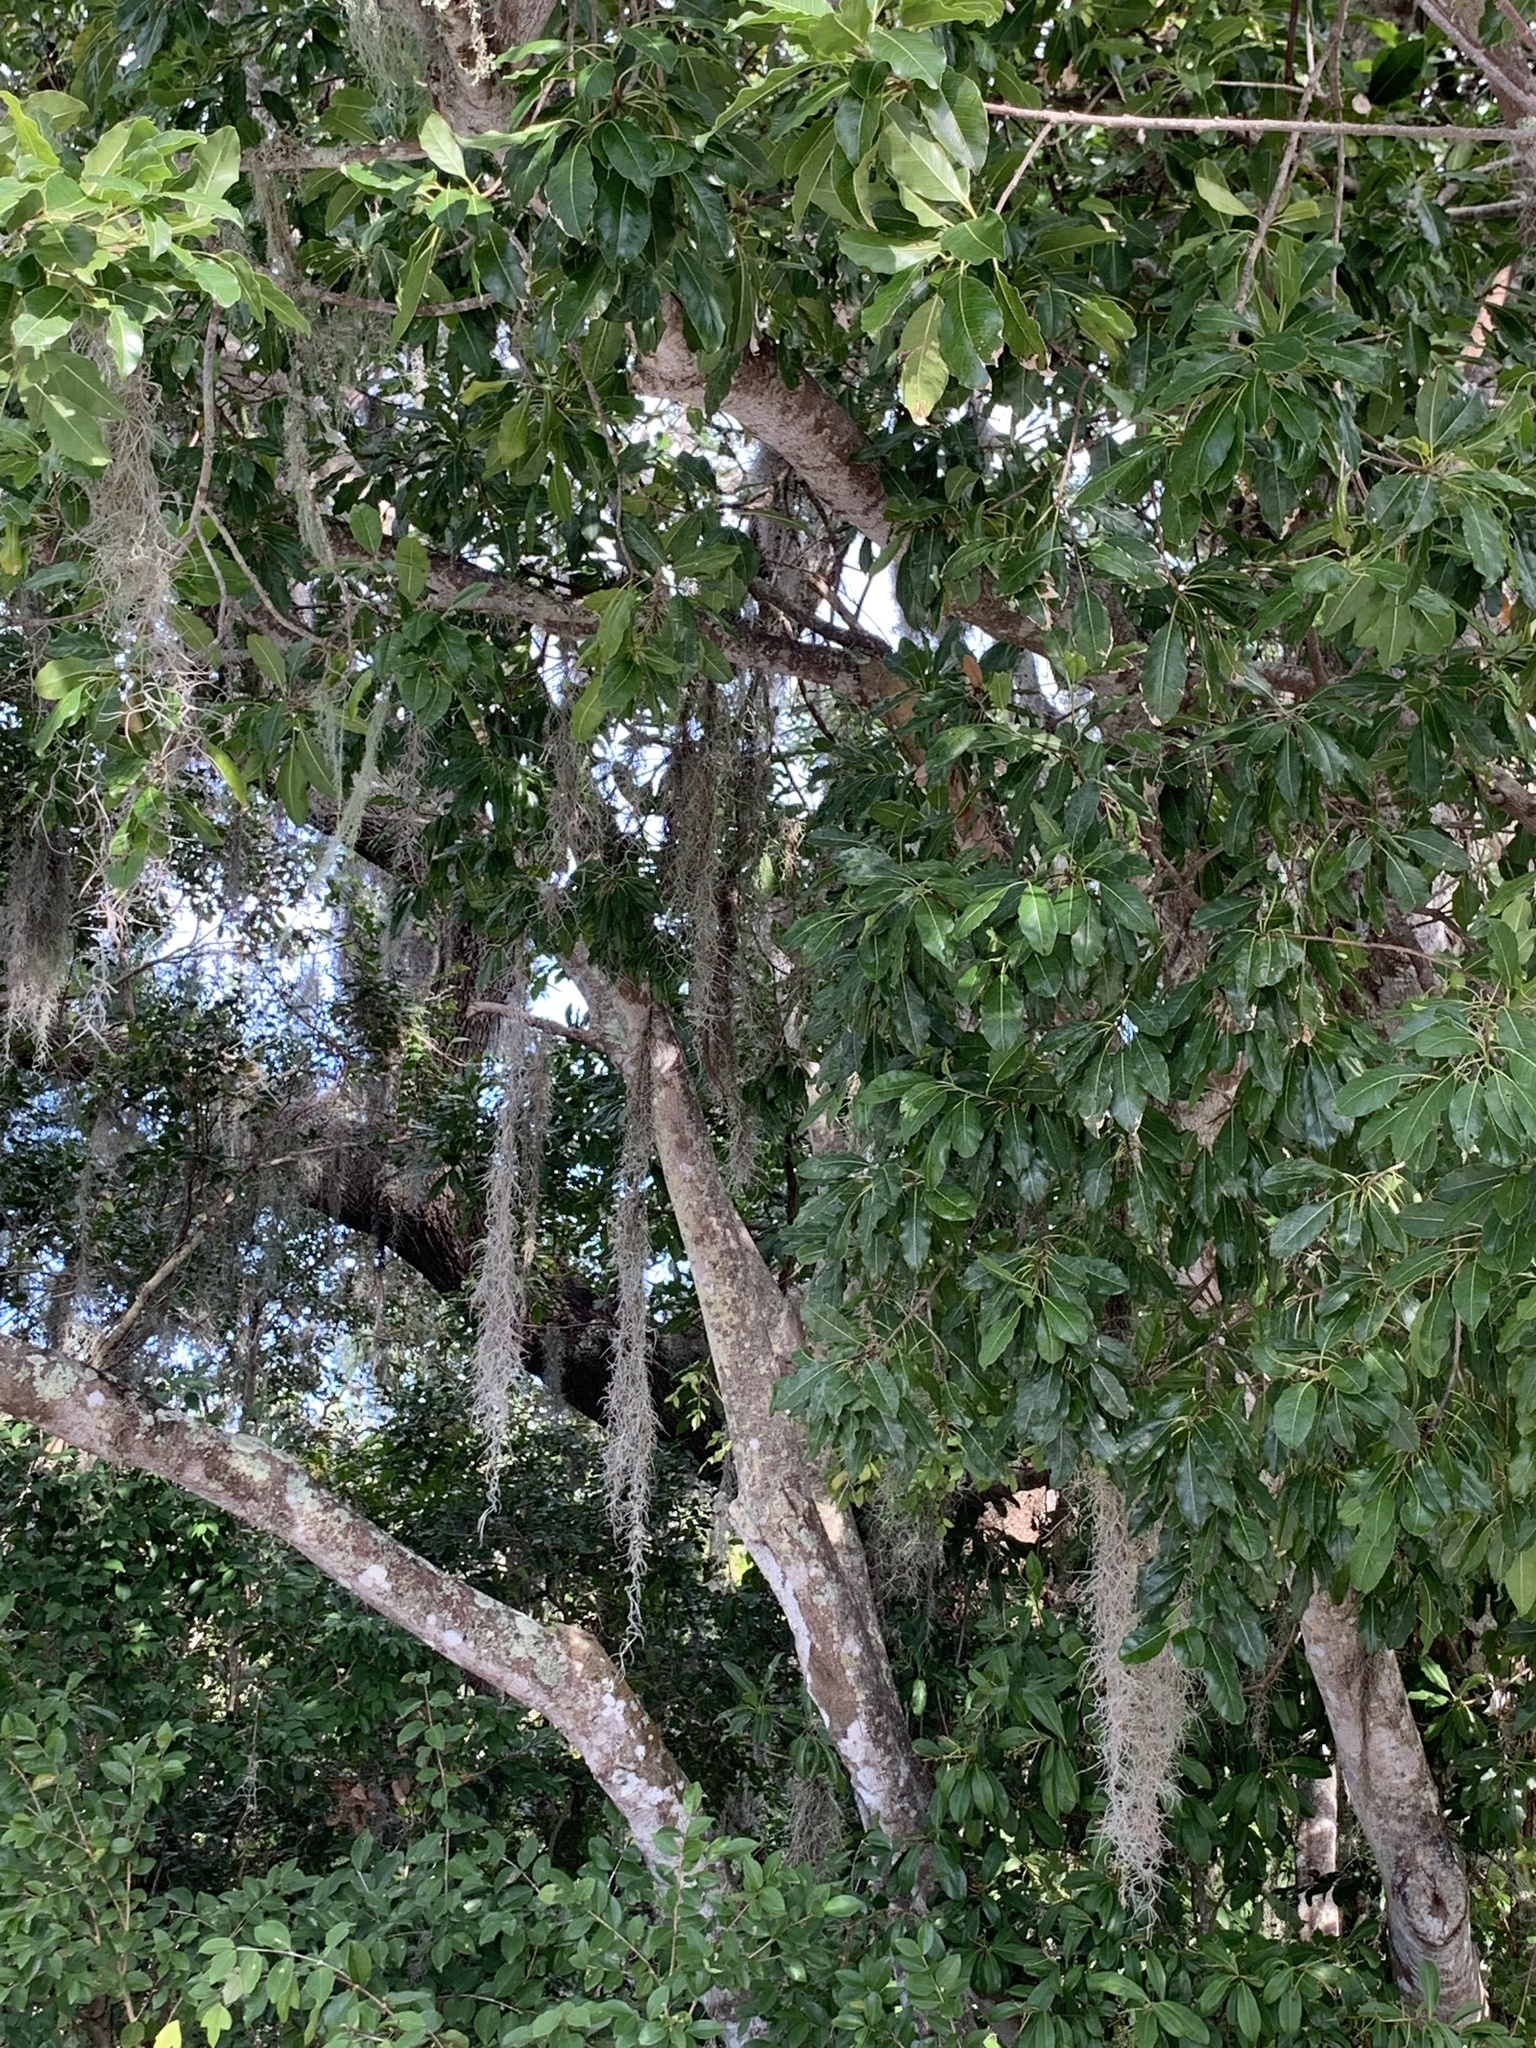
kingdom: Plantae
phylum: Tracheophyta
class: Magnoliopsida
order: Ericales
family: Sapotaceae
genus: Sideroxylon
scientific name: Sideroxylon foetidissimum
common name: Barbados-mastic
